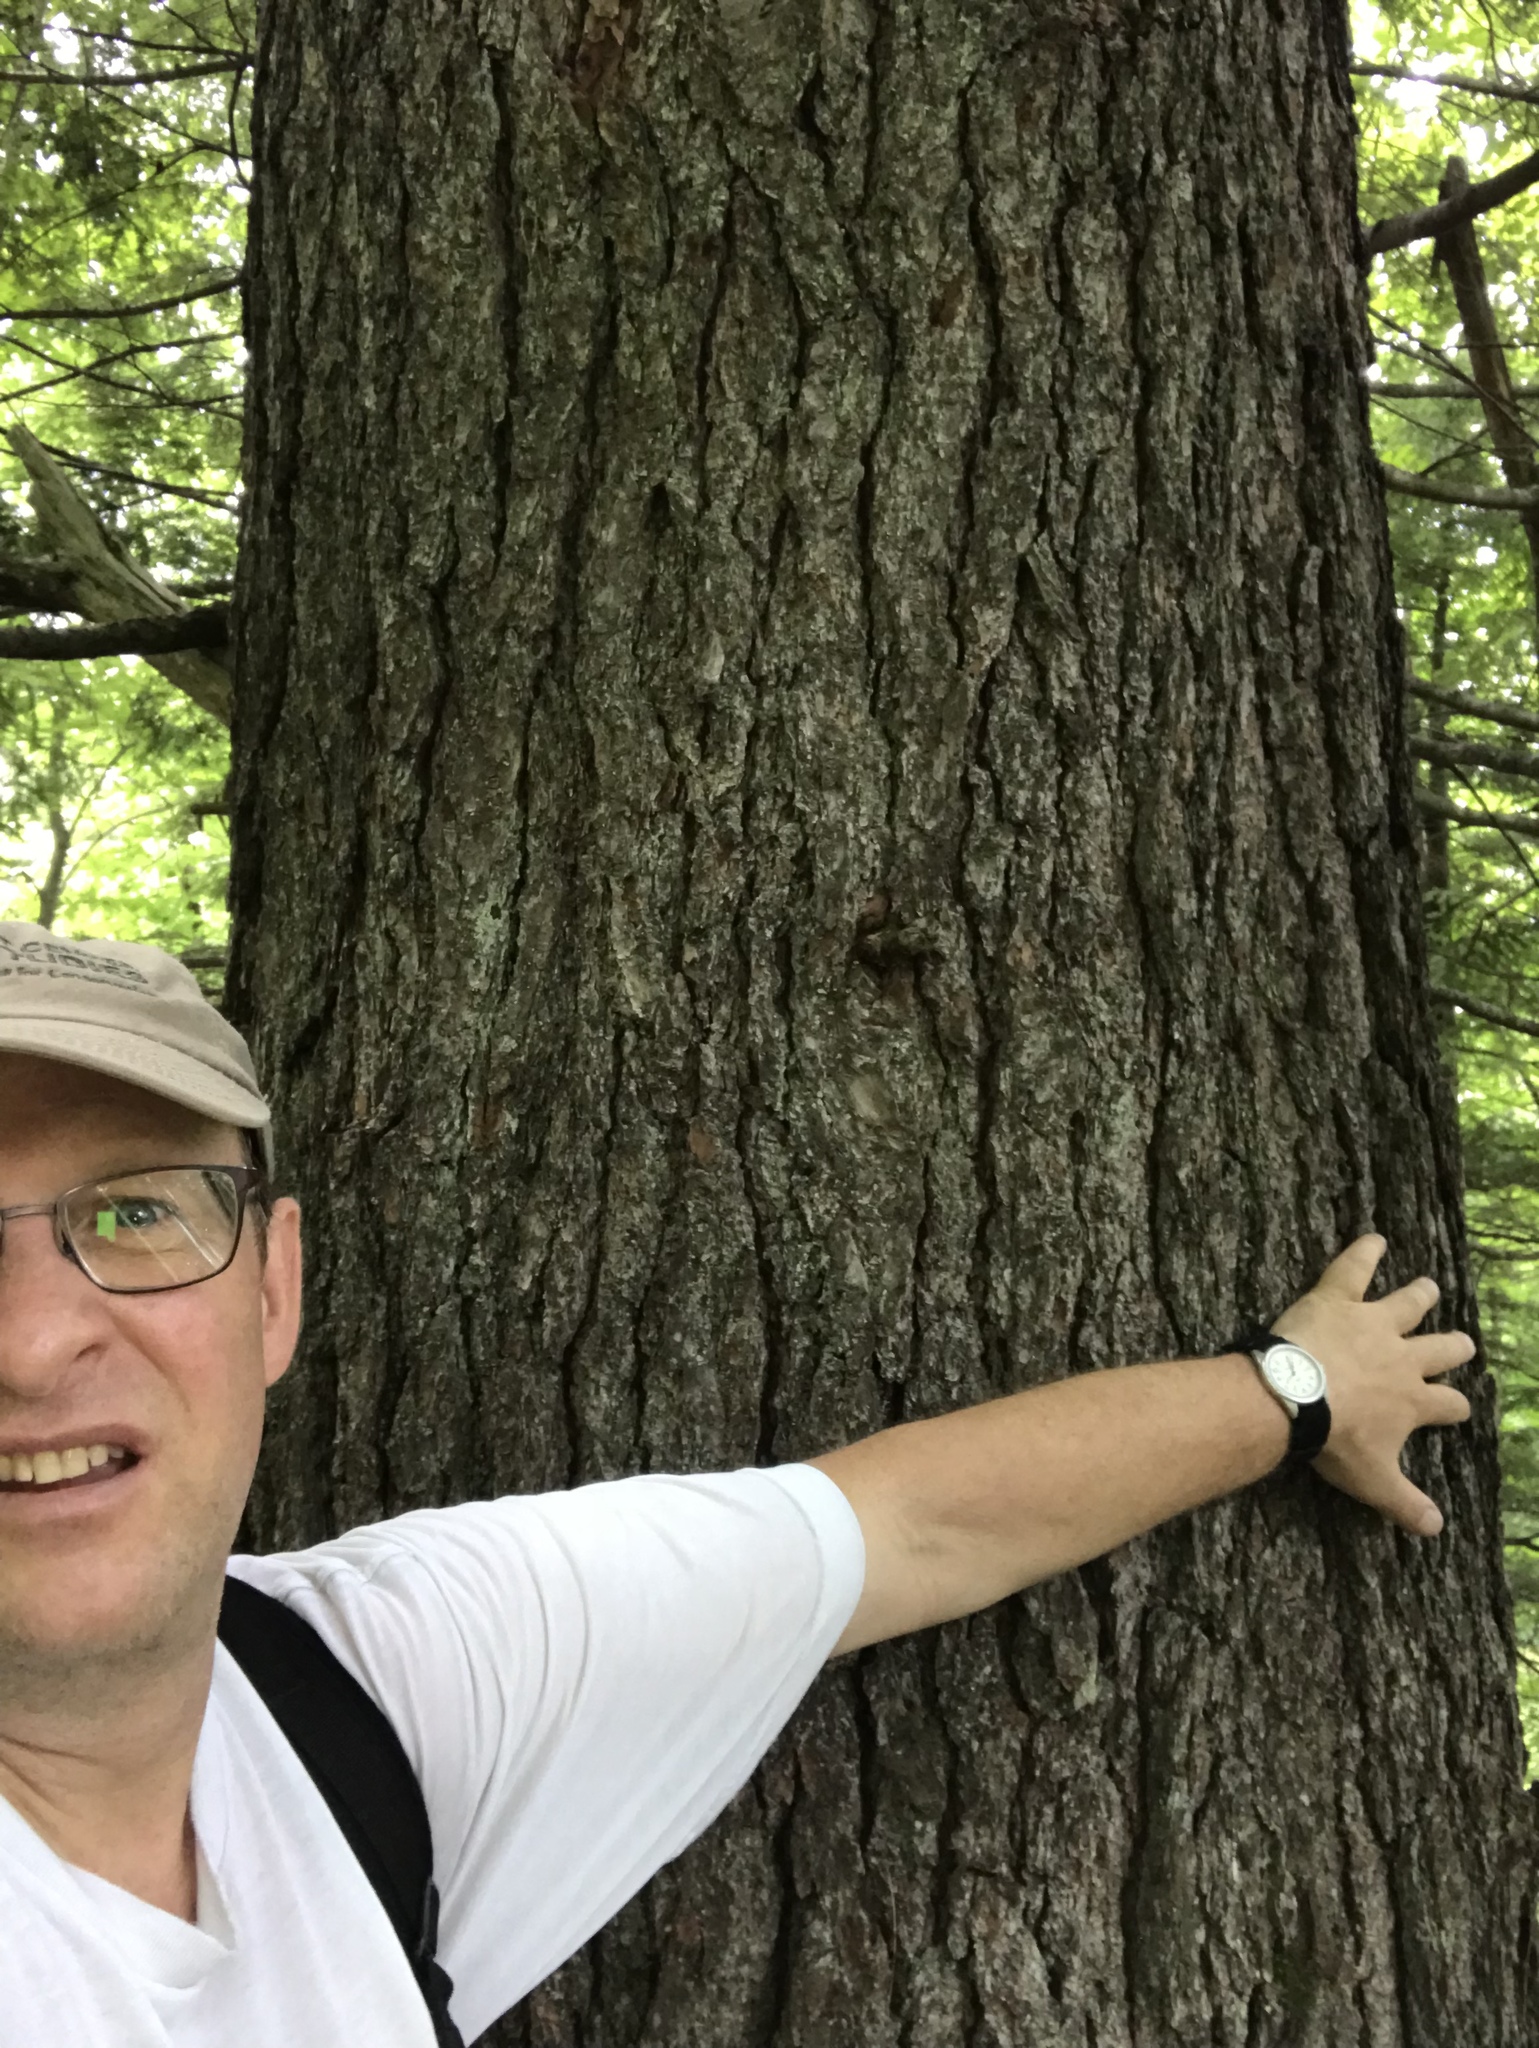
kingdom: Plantae
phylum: Tracheophyta
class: Pinopsida
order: Pinales
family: Pinaceae
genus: Pinus
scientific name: Pinus strobus
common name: Weymouth pine
